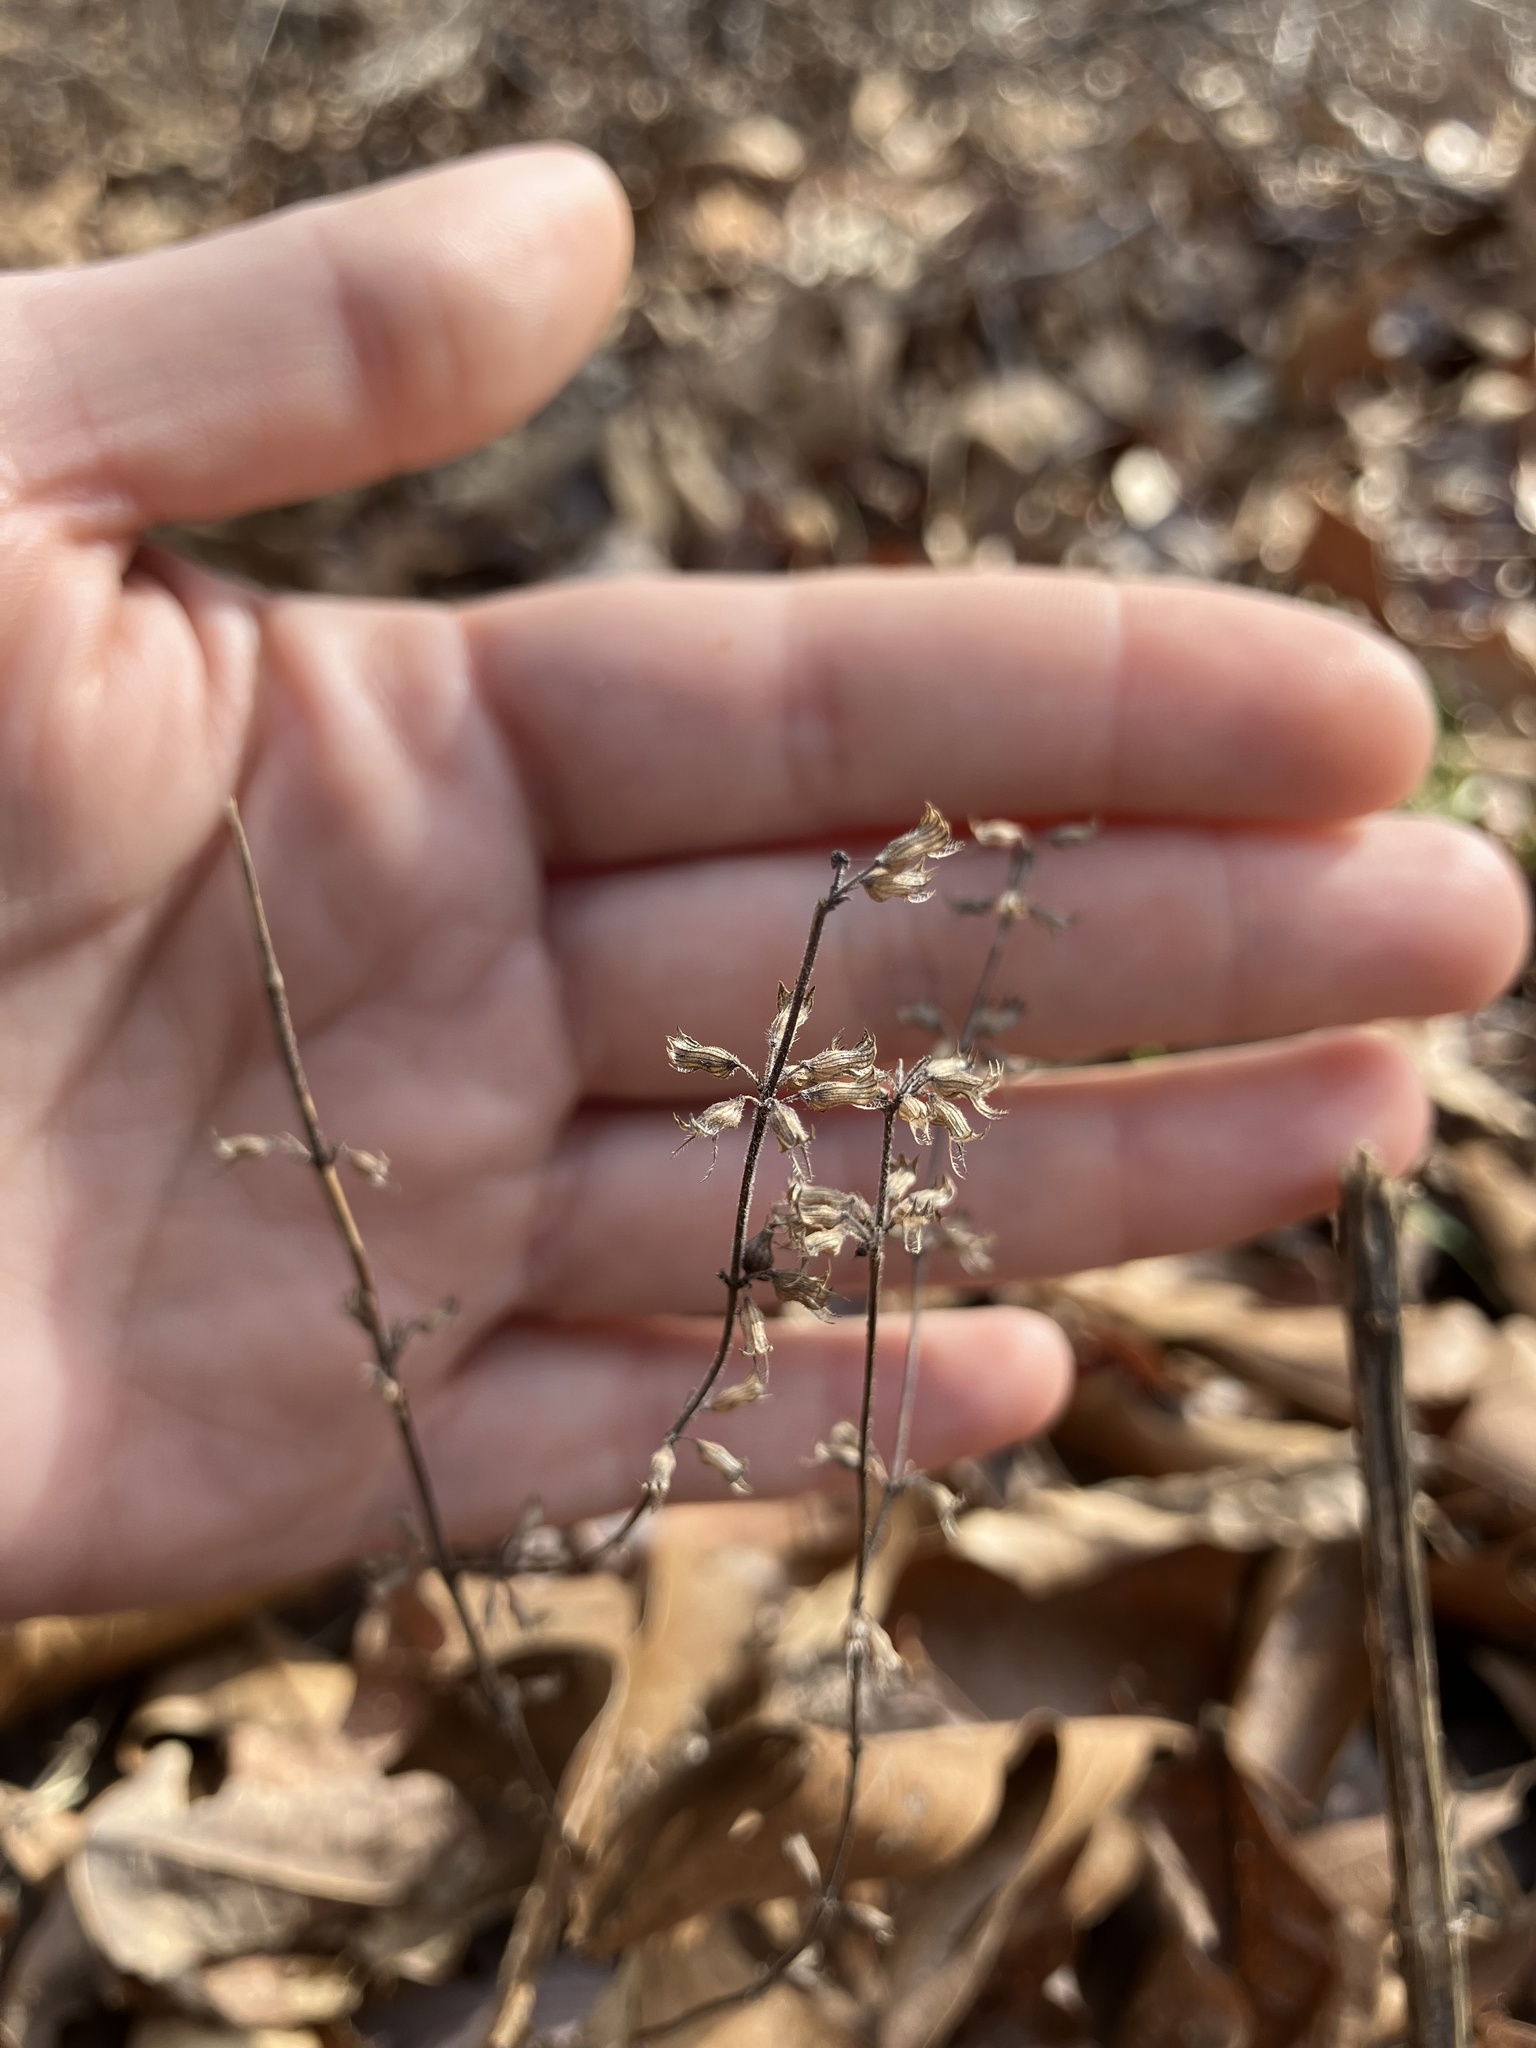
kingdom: Plantae
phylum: Tracheophyta
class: Magnoliopsida
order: Lamiales
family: Lamiaceae
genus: Hedeoma
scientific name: Hedeoma pulegioides
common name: American false pennyroyal
